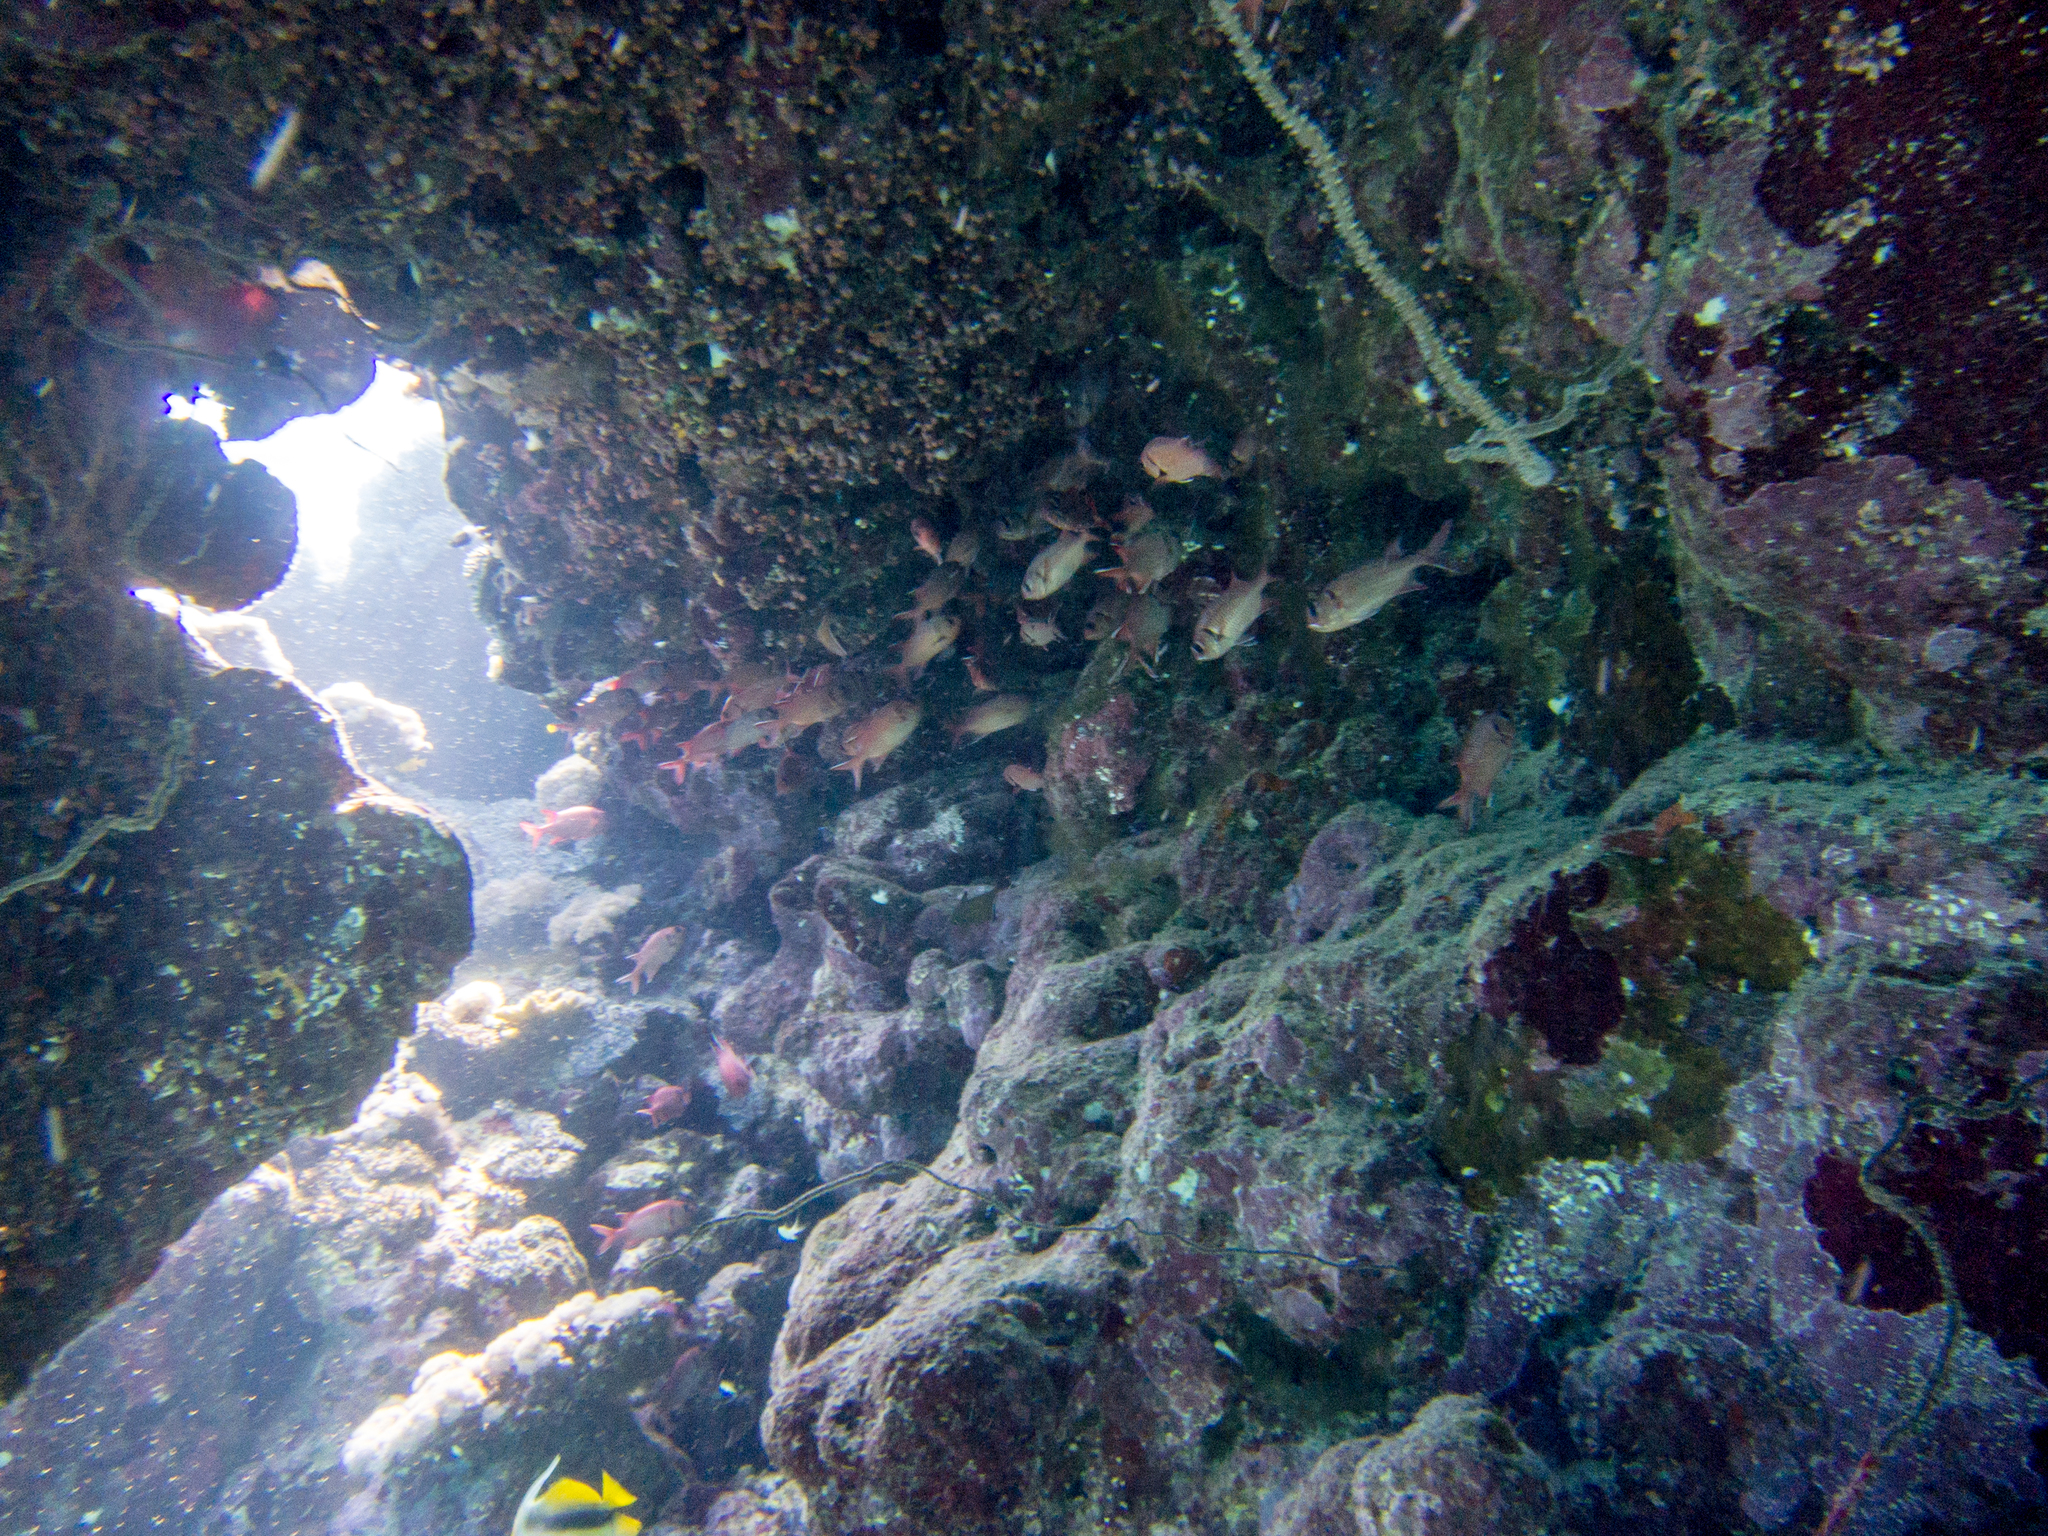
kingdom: Animalia
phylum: Chordata
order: Beryciformes
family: Holocentridae
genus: Myripristis
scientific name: Myripristis murdjan
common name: Big-eye soldierfish
